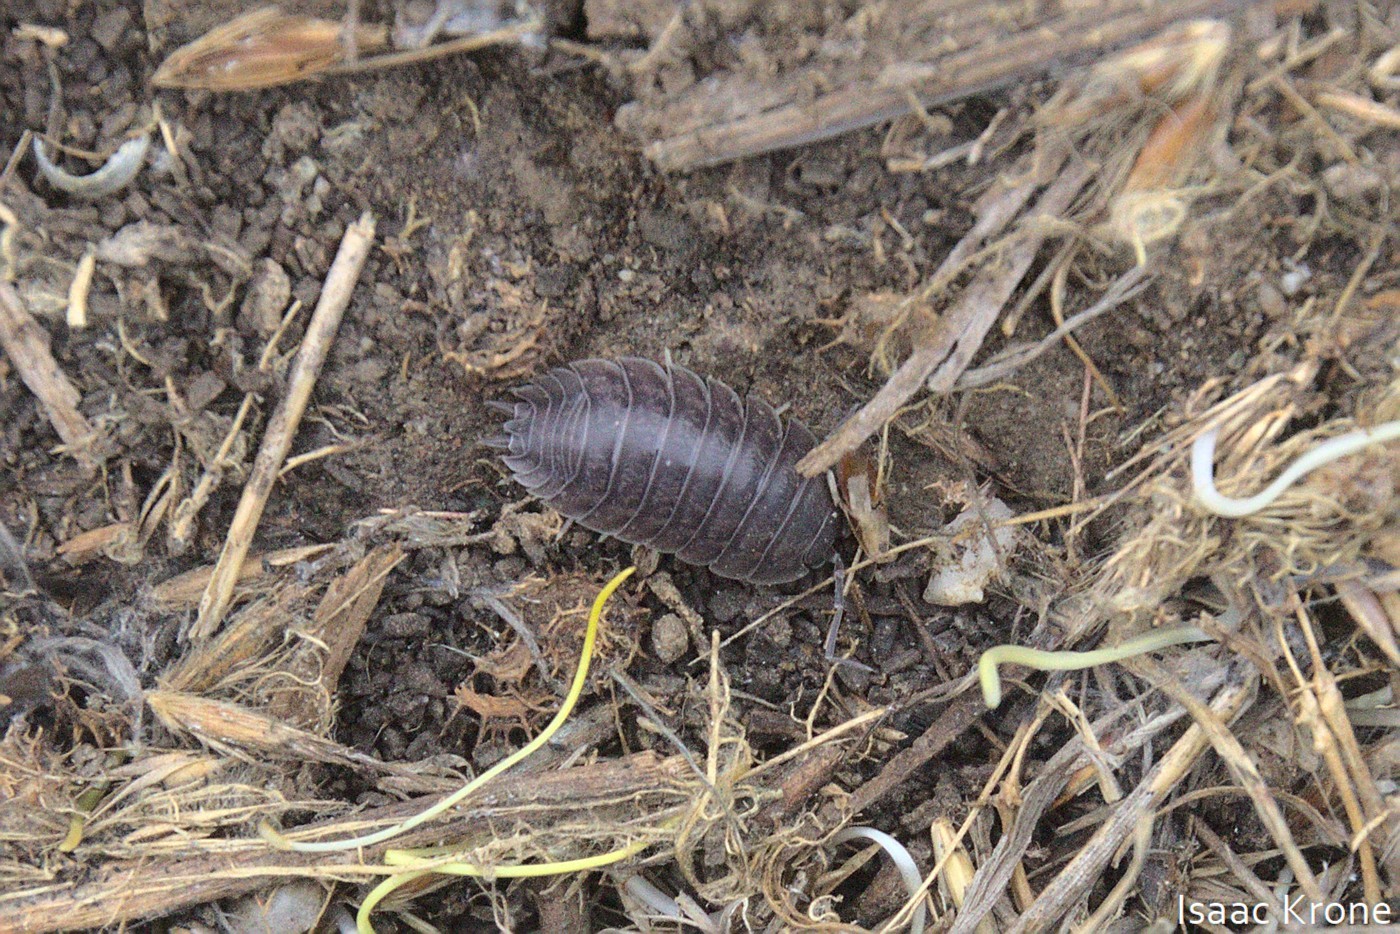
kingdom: Animalia
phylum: Arthropoda
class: Malacostraca
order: Isopoda
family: Porcellionidae
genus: Porcellio
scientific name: Porcellio laevis
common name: Swift woodlouse
